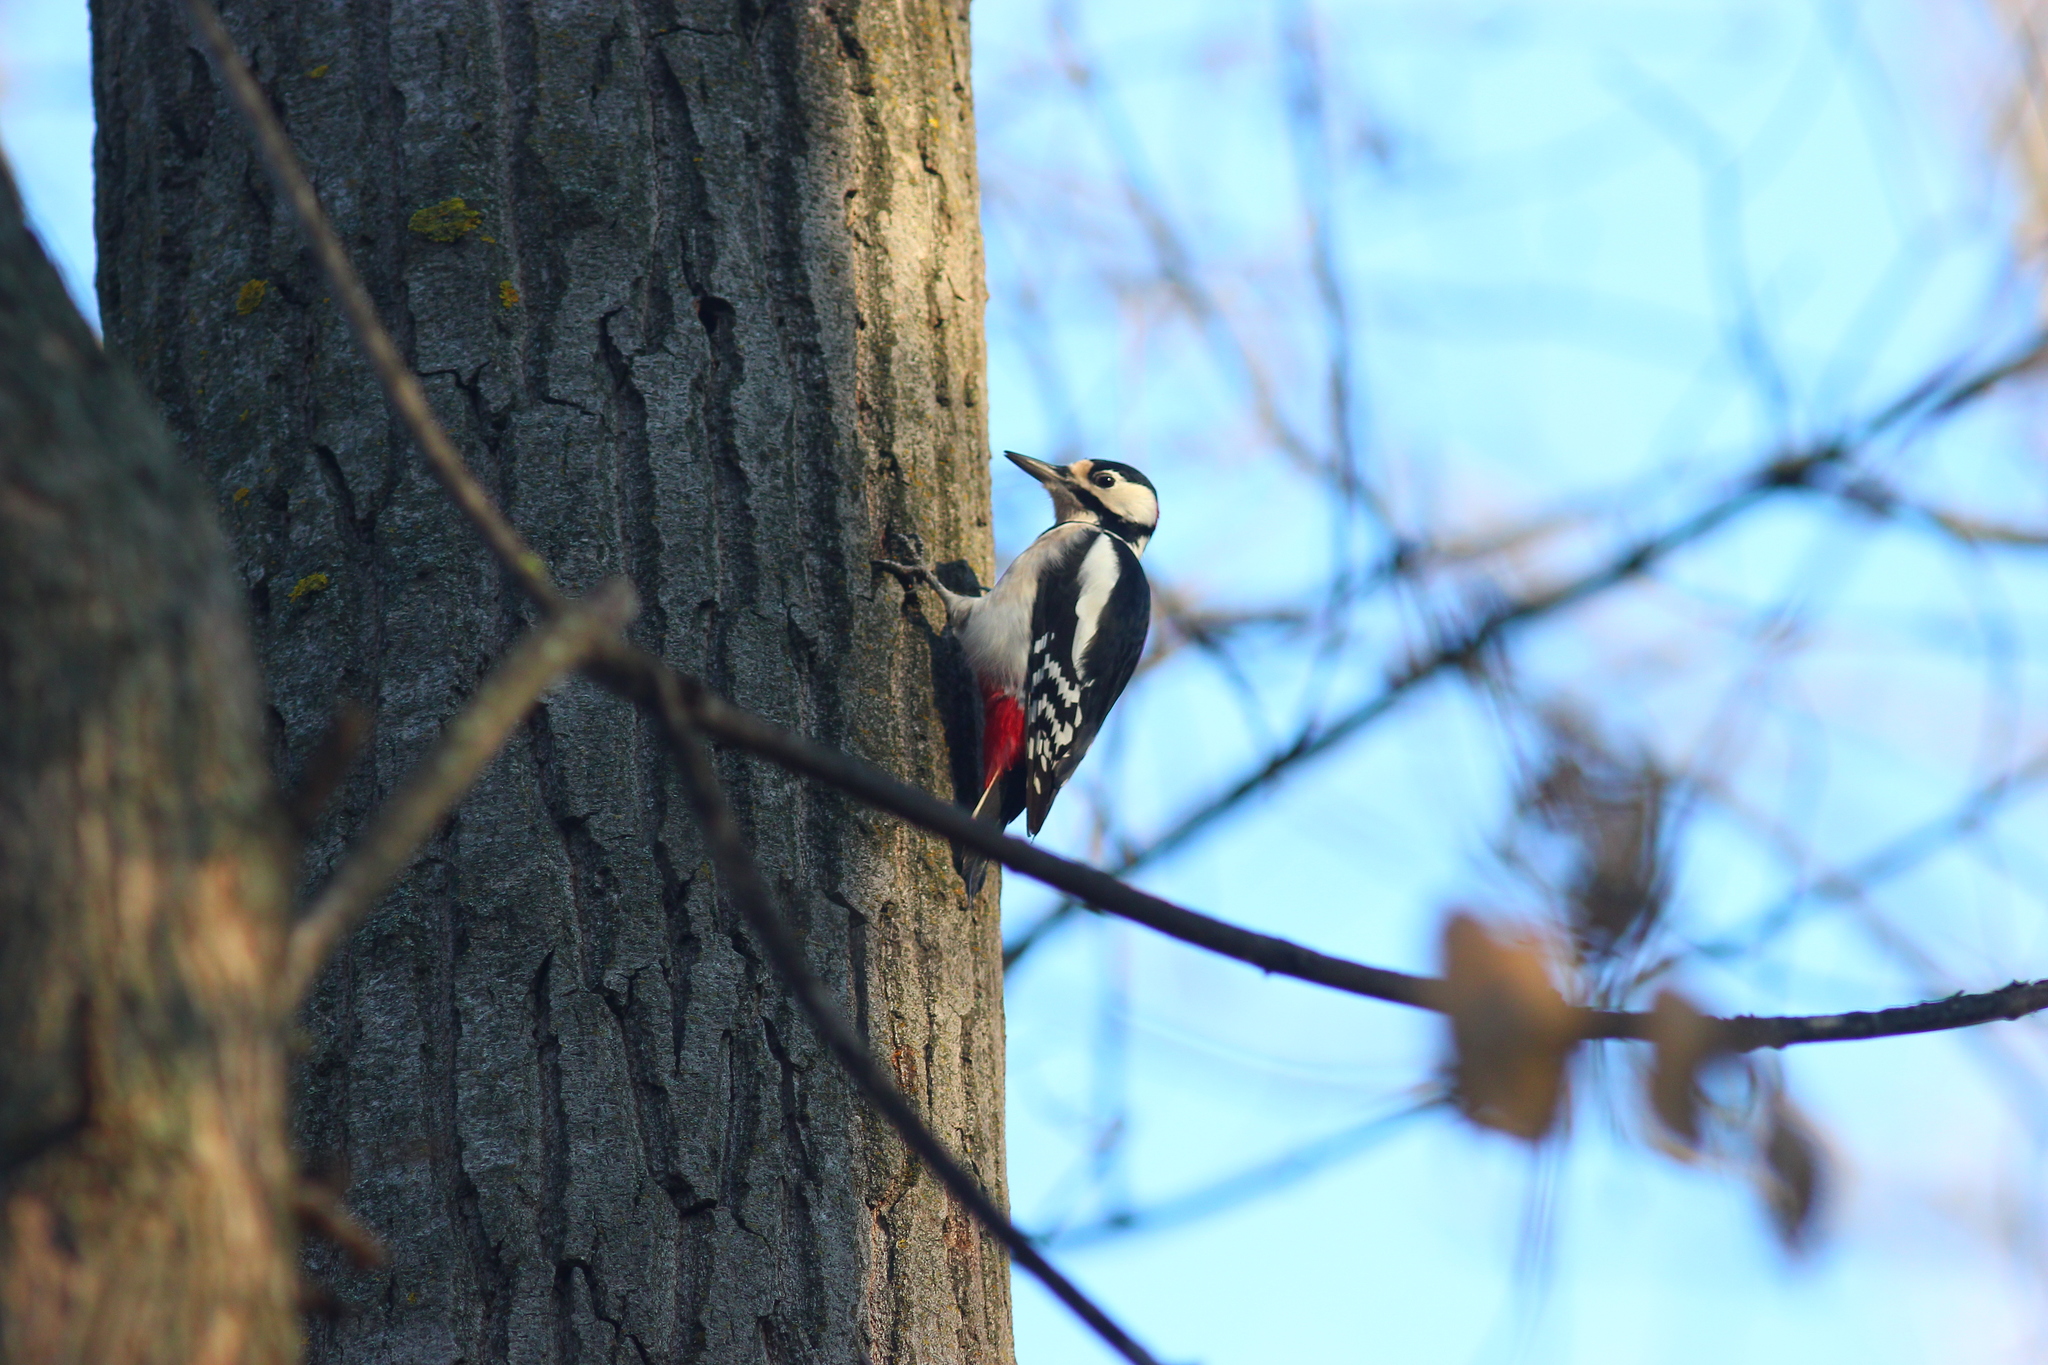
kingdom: Animalia
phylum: Chordata
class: Aves
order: Piciformes
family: Picidae
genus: Dendrocopos
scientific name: Dendrocopos major
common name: Great spotted woodpecker
